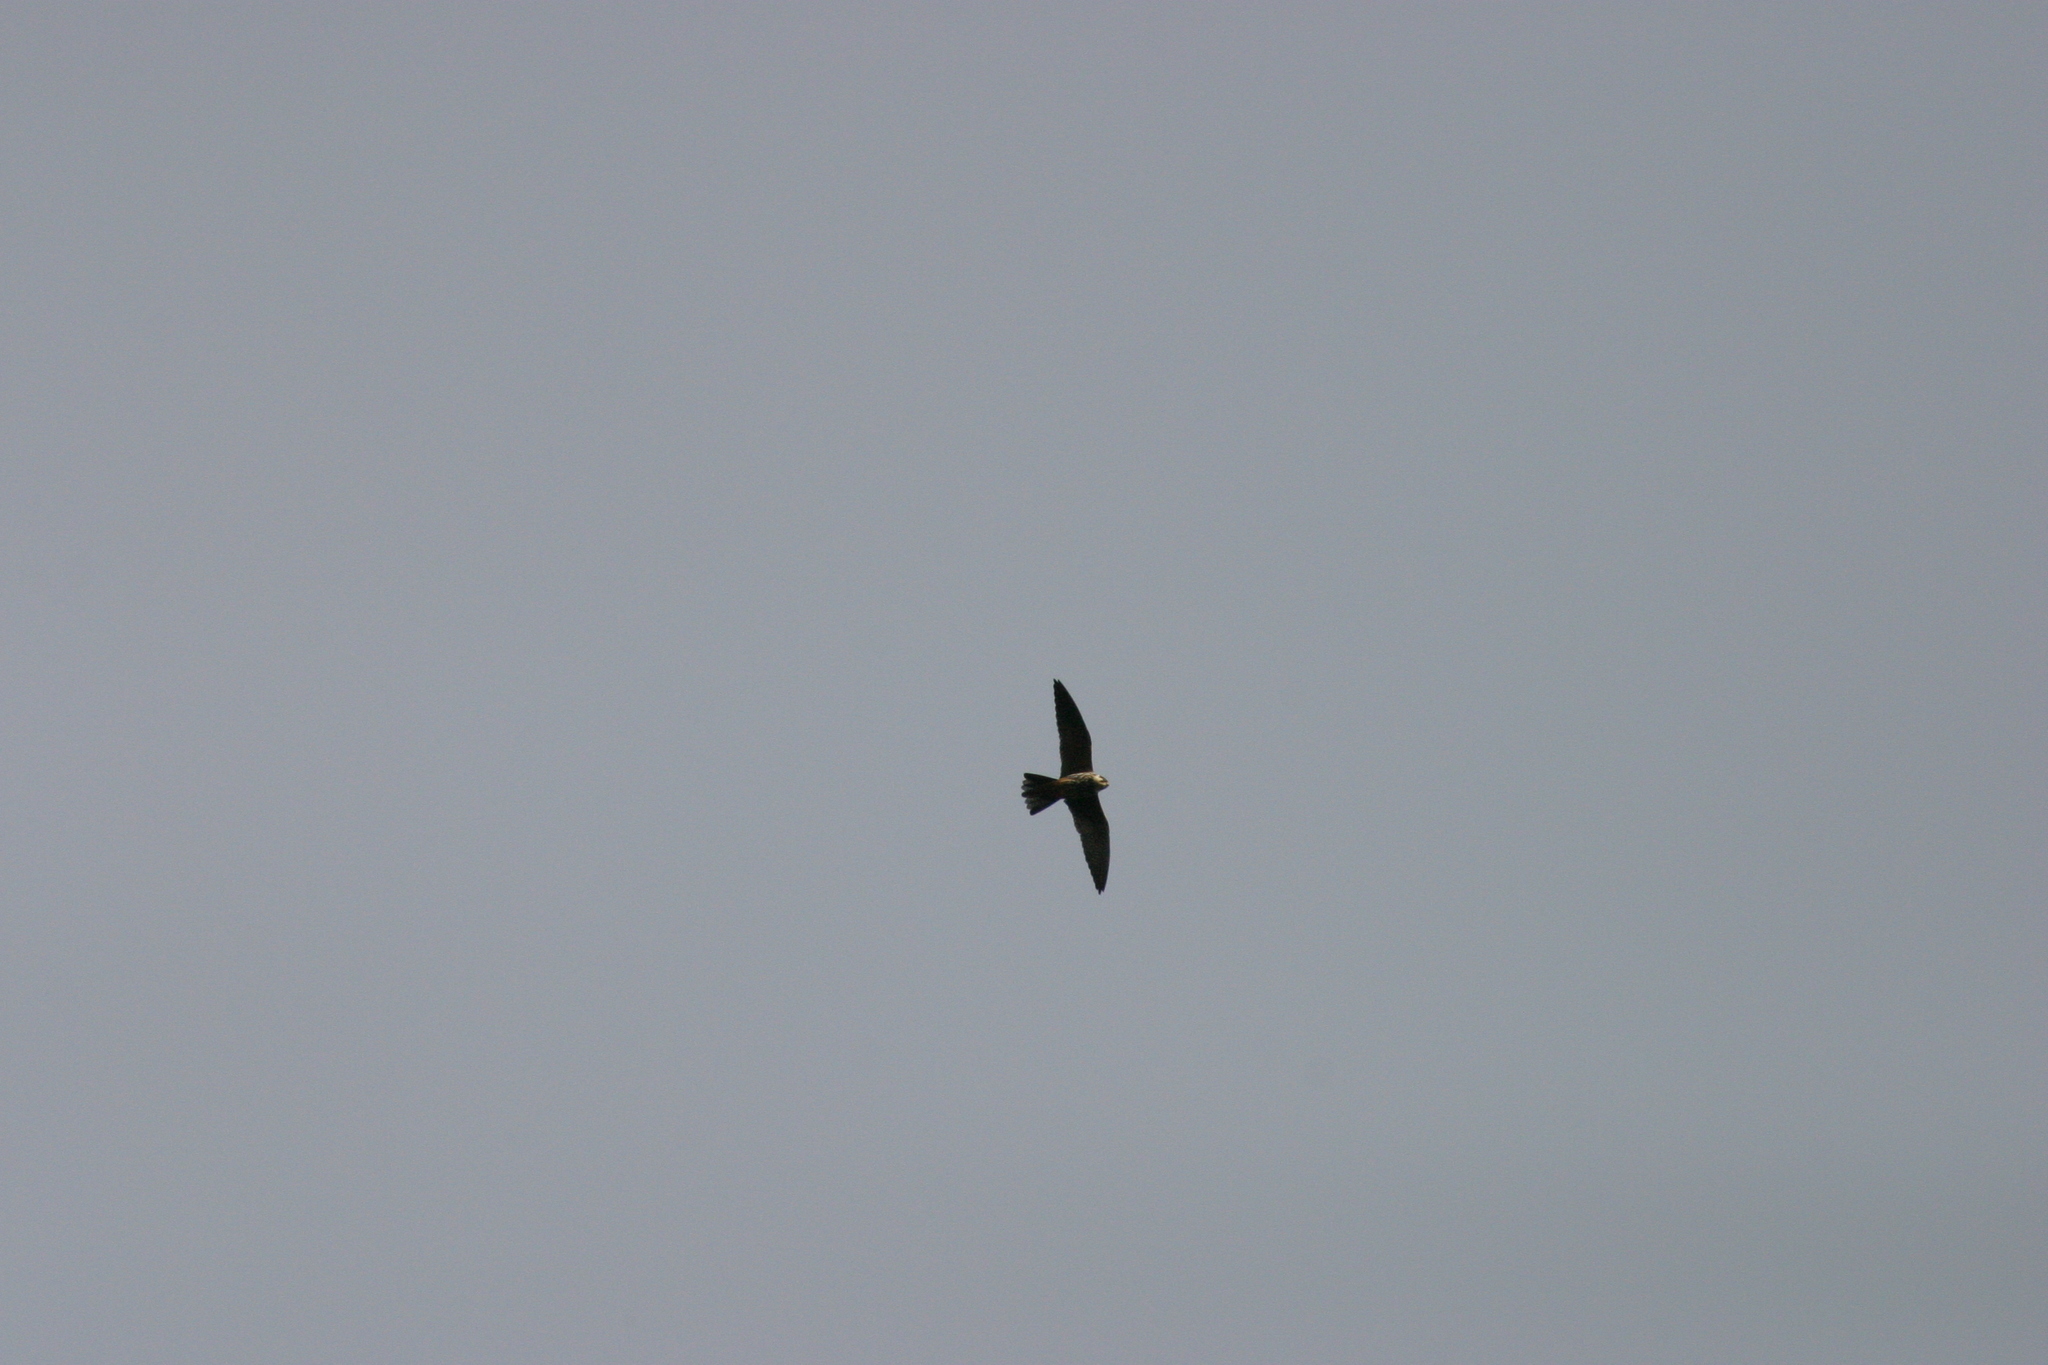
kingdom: Animalia
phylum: Chordata
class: Aves
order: Falconiformes
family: Falconidae
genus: Falco
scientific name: Falco subbuteo
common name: Eurasian hobby
